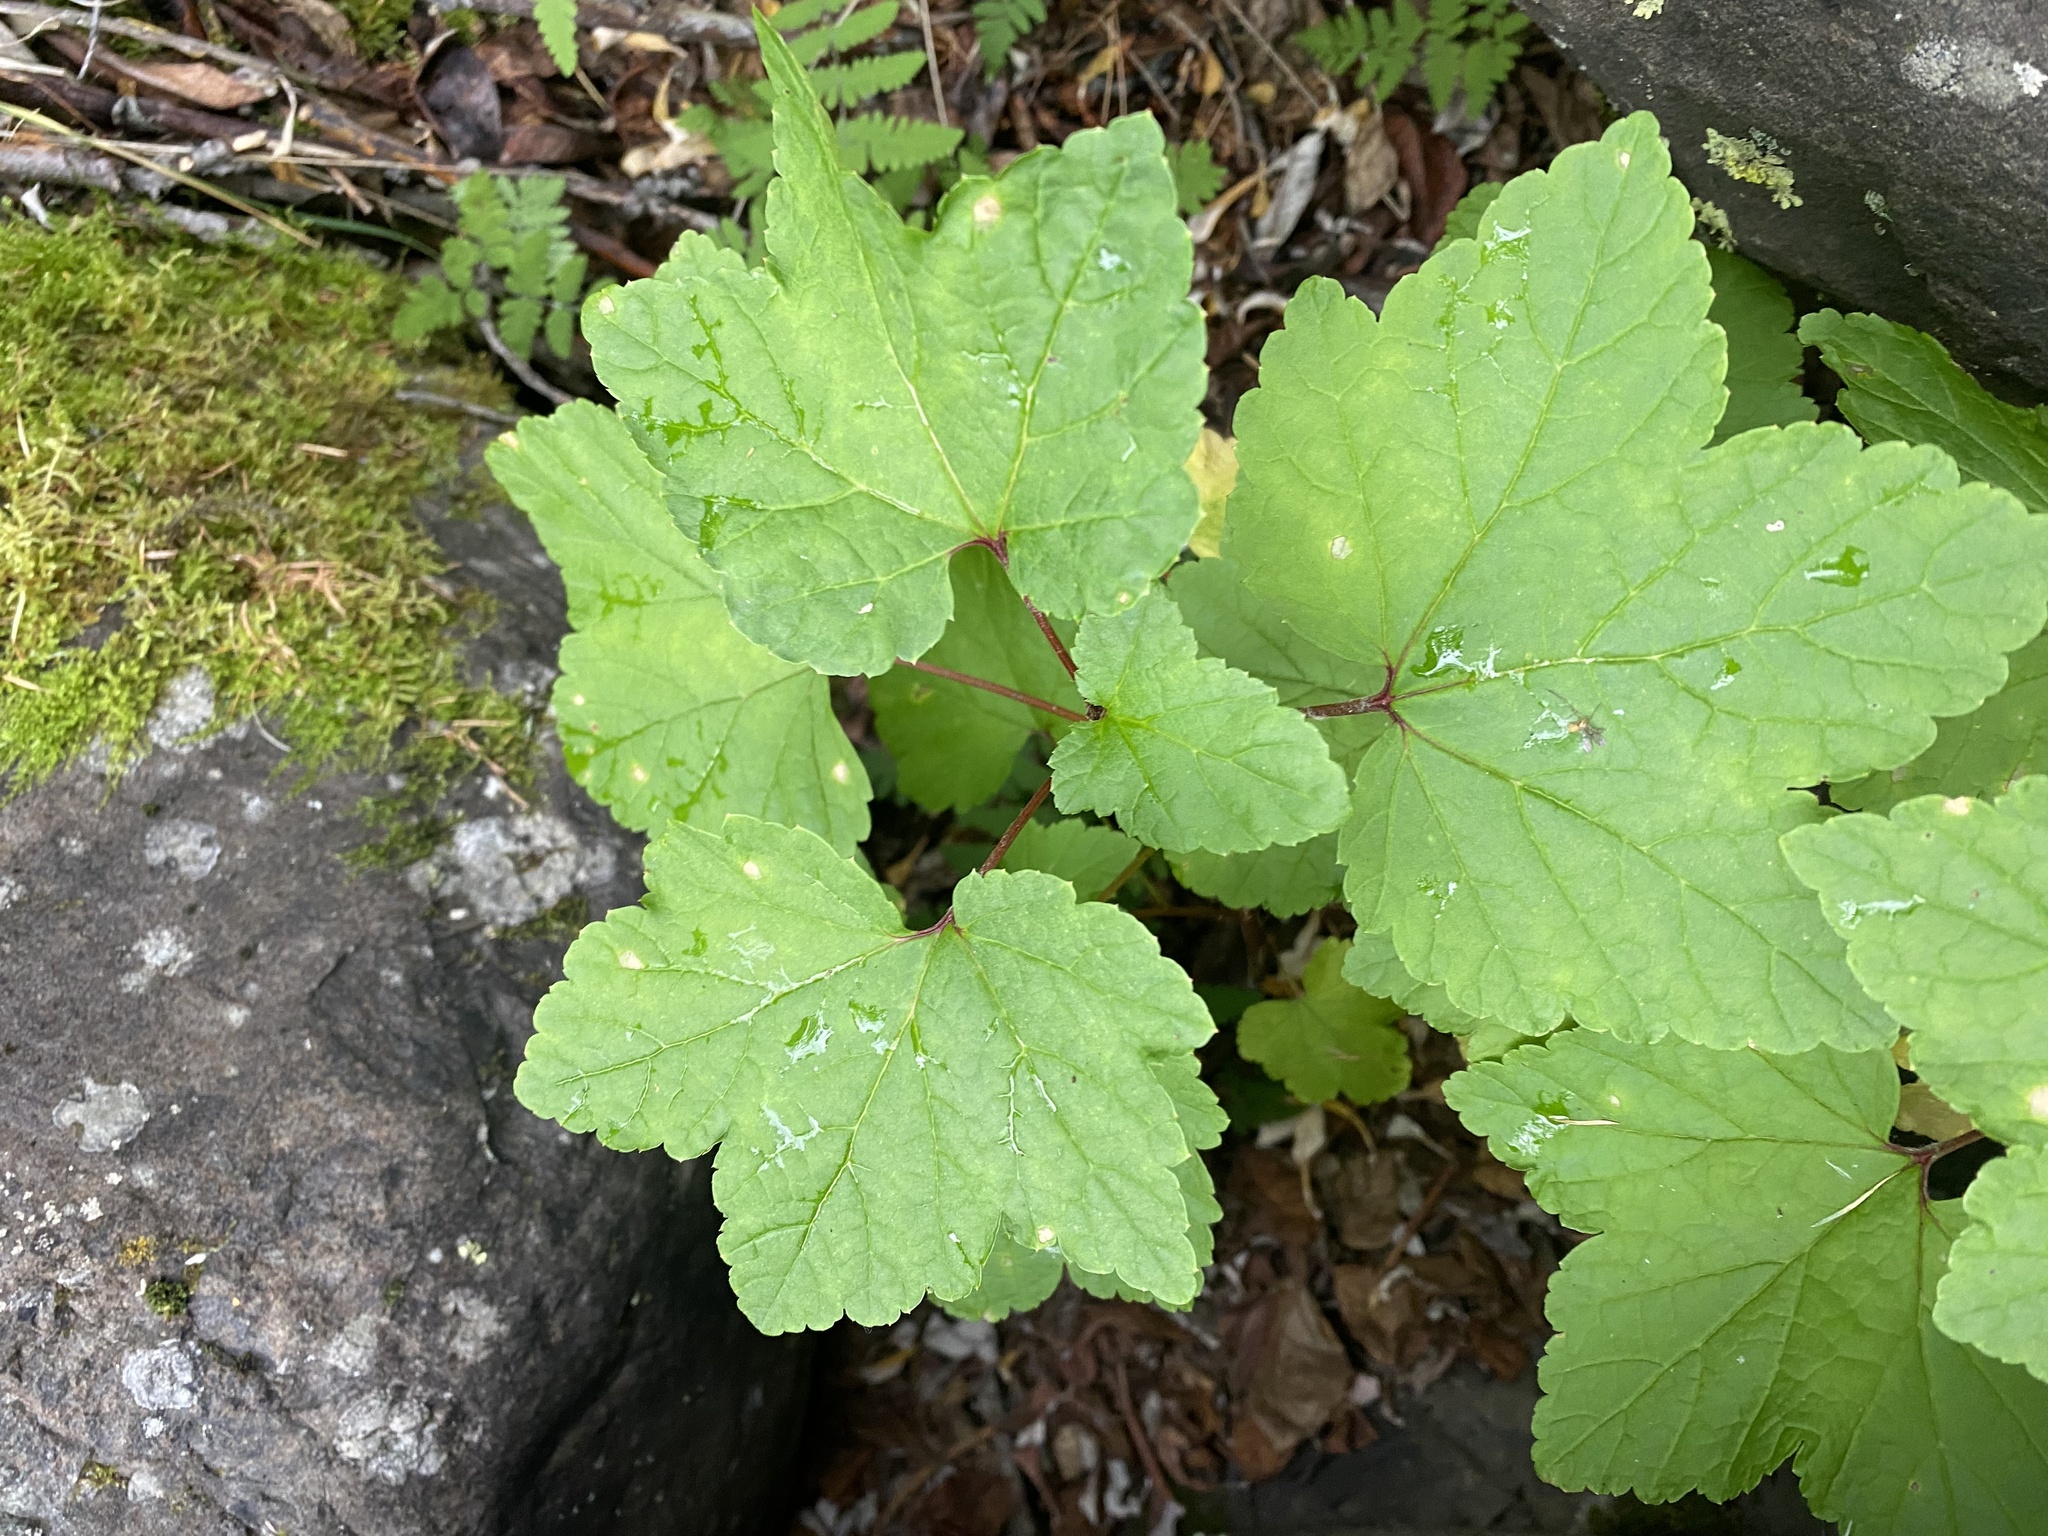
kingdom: Plantae
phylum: Tracheophyta
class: Magnoliopsida
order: Saxifragales
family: Grossulariaceae
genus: Ribes
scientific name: Ribes triste
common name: Swamp red currant
